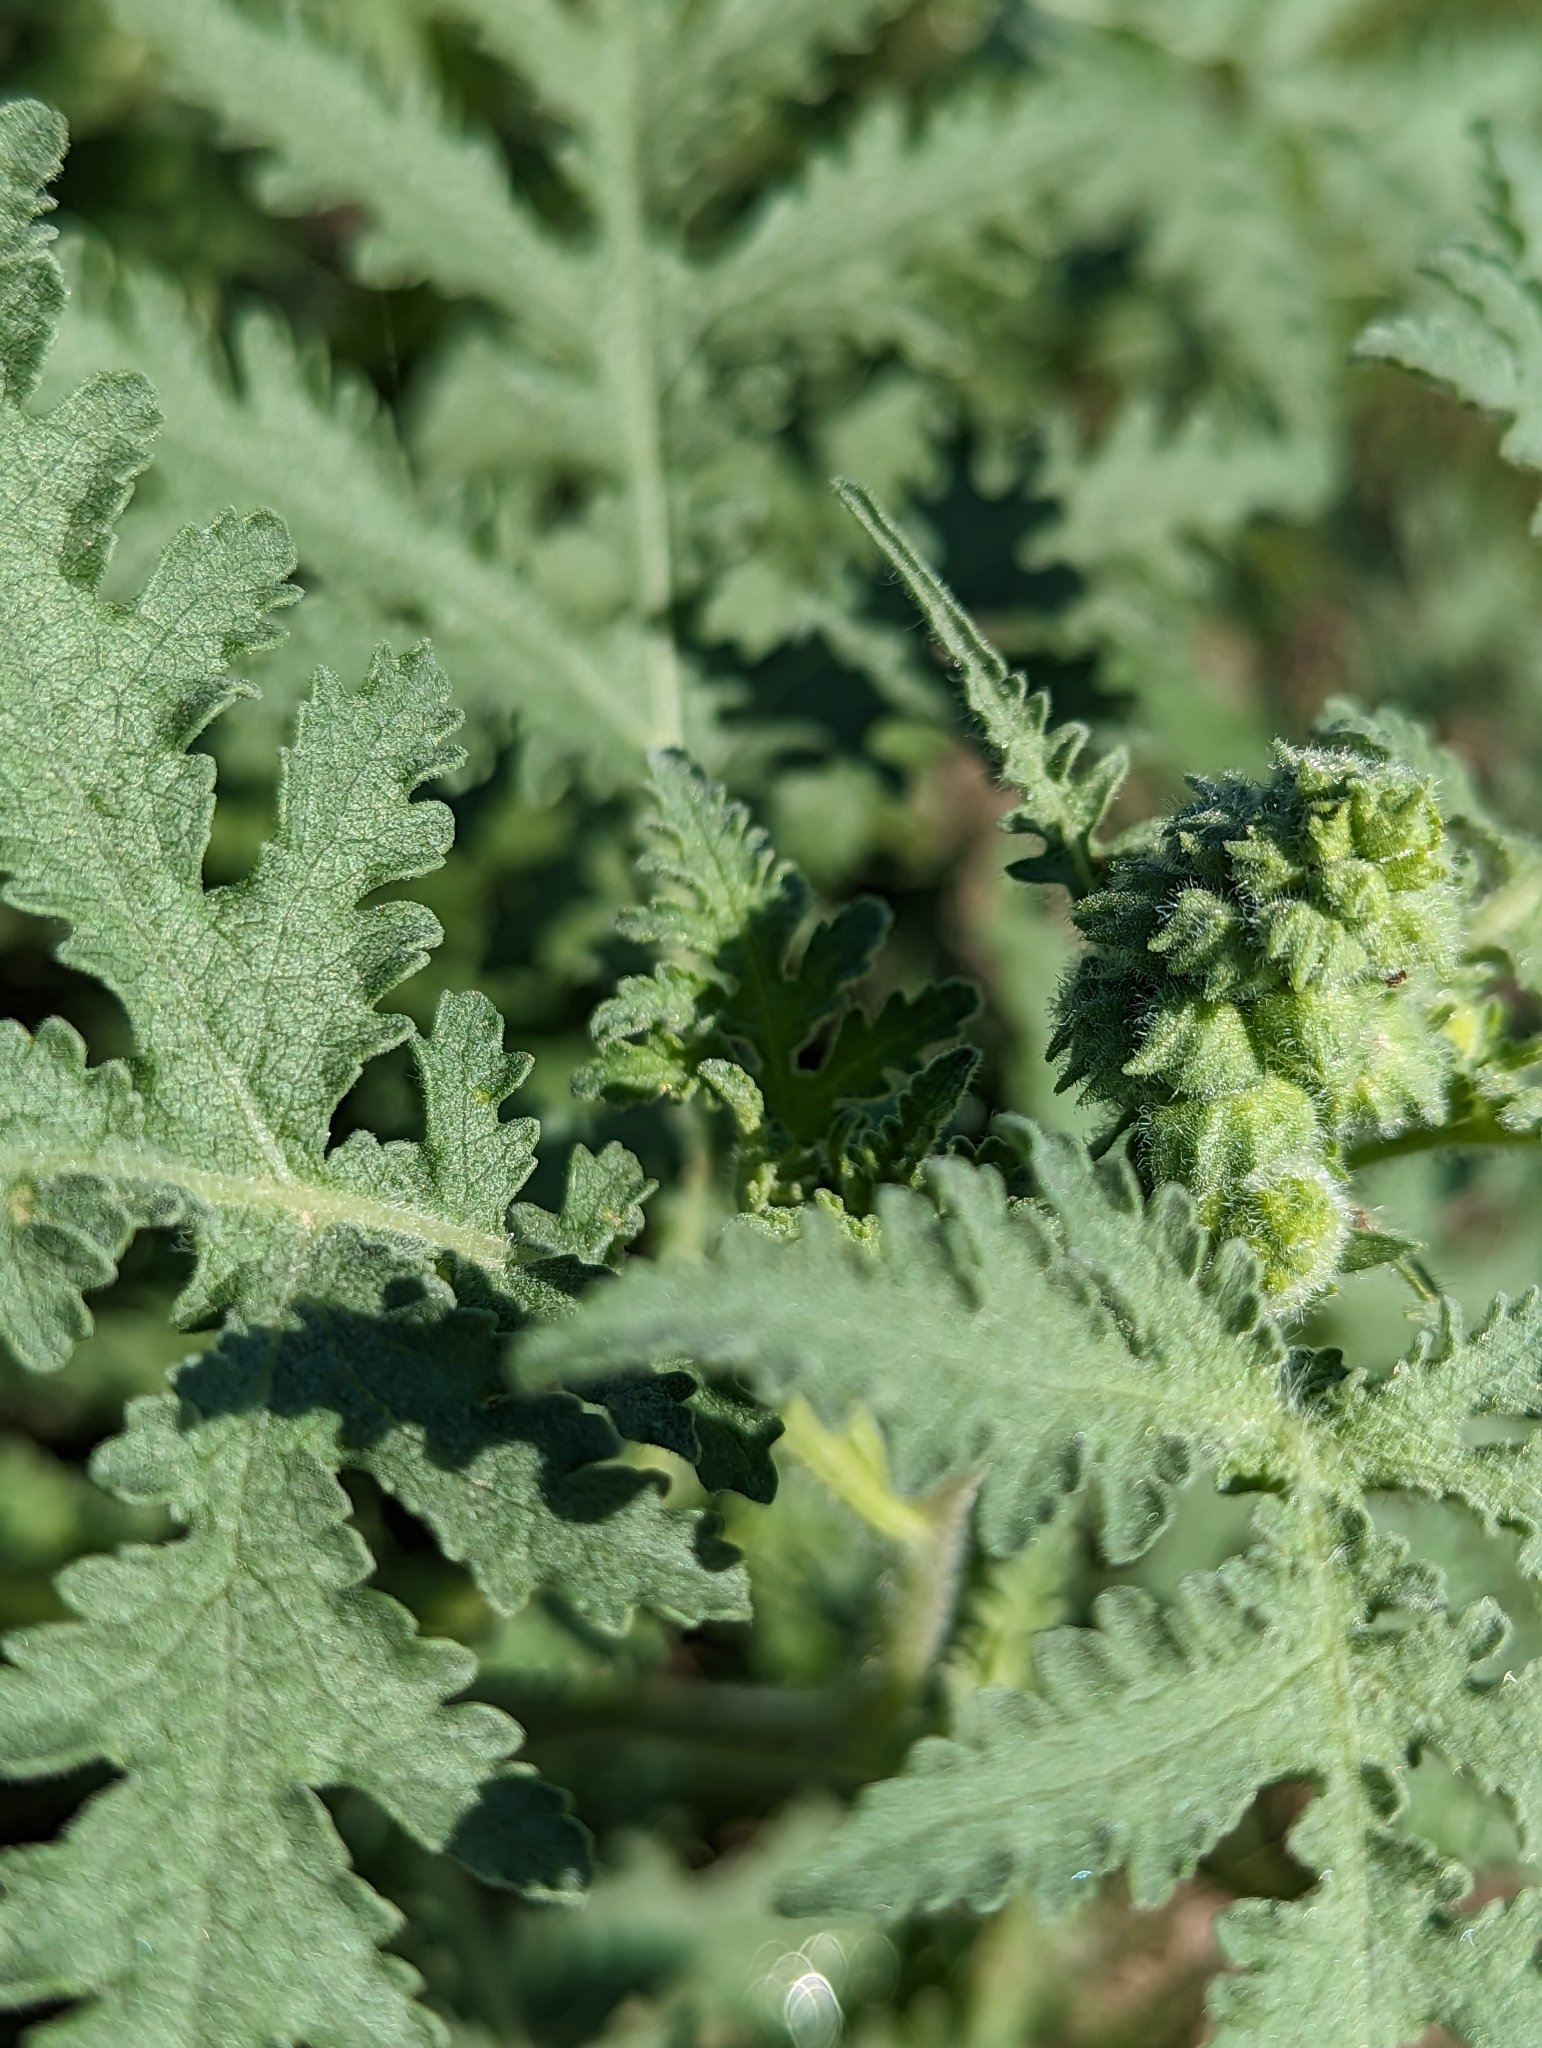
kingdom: Plantae
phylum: Tracheophyta
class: Magnoliopsida
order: Asterales
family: Asteraceae
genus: Ambrosia
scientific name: Ambrosia camphorata
